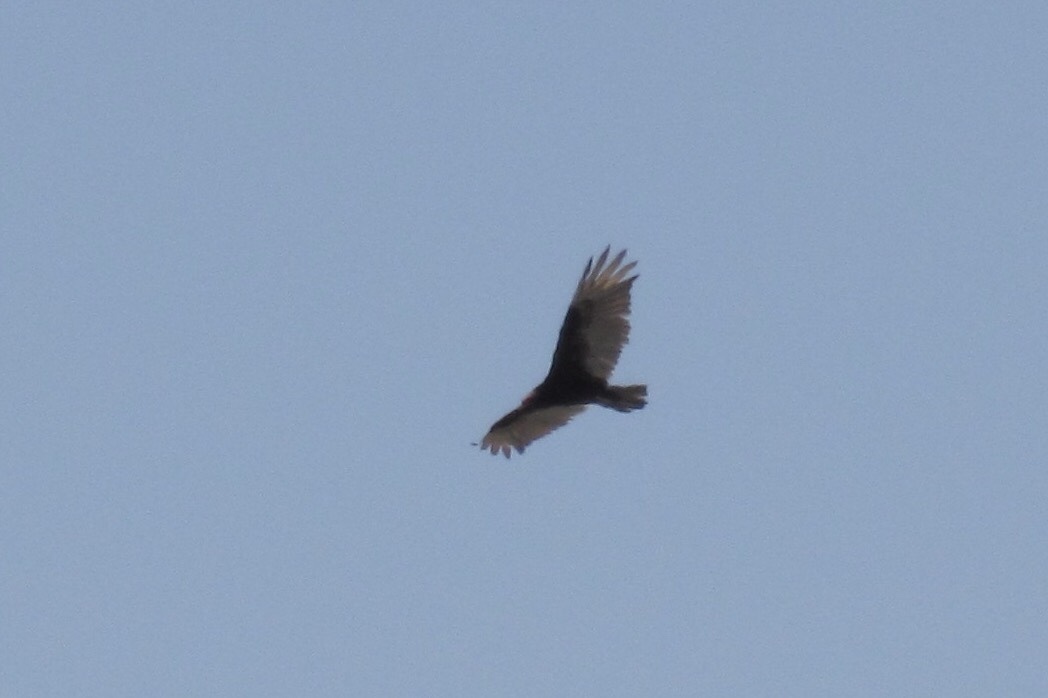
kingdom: Animalia
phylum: Chordata
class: Aves
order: Accipitriformes
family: Cathartidae
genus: Cathartes
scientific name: Cathartes aura
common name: Turkey vulture
